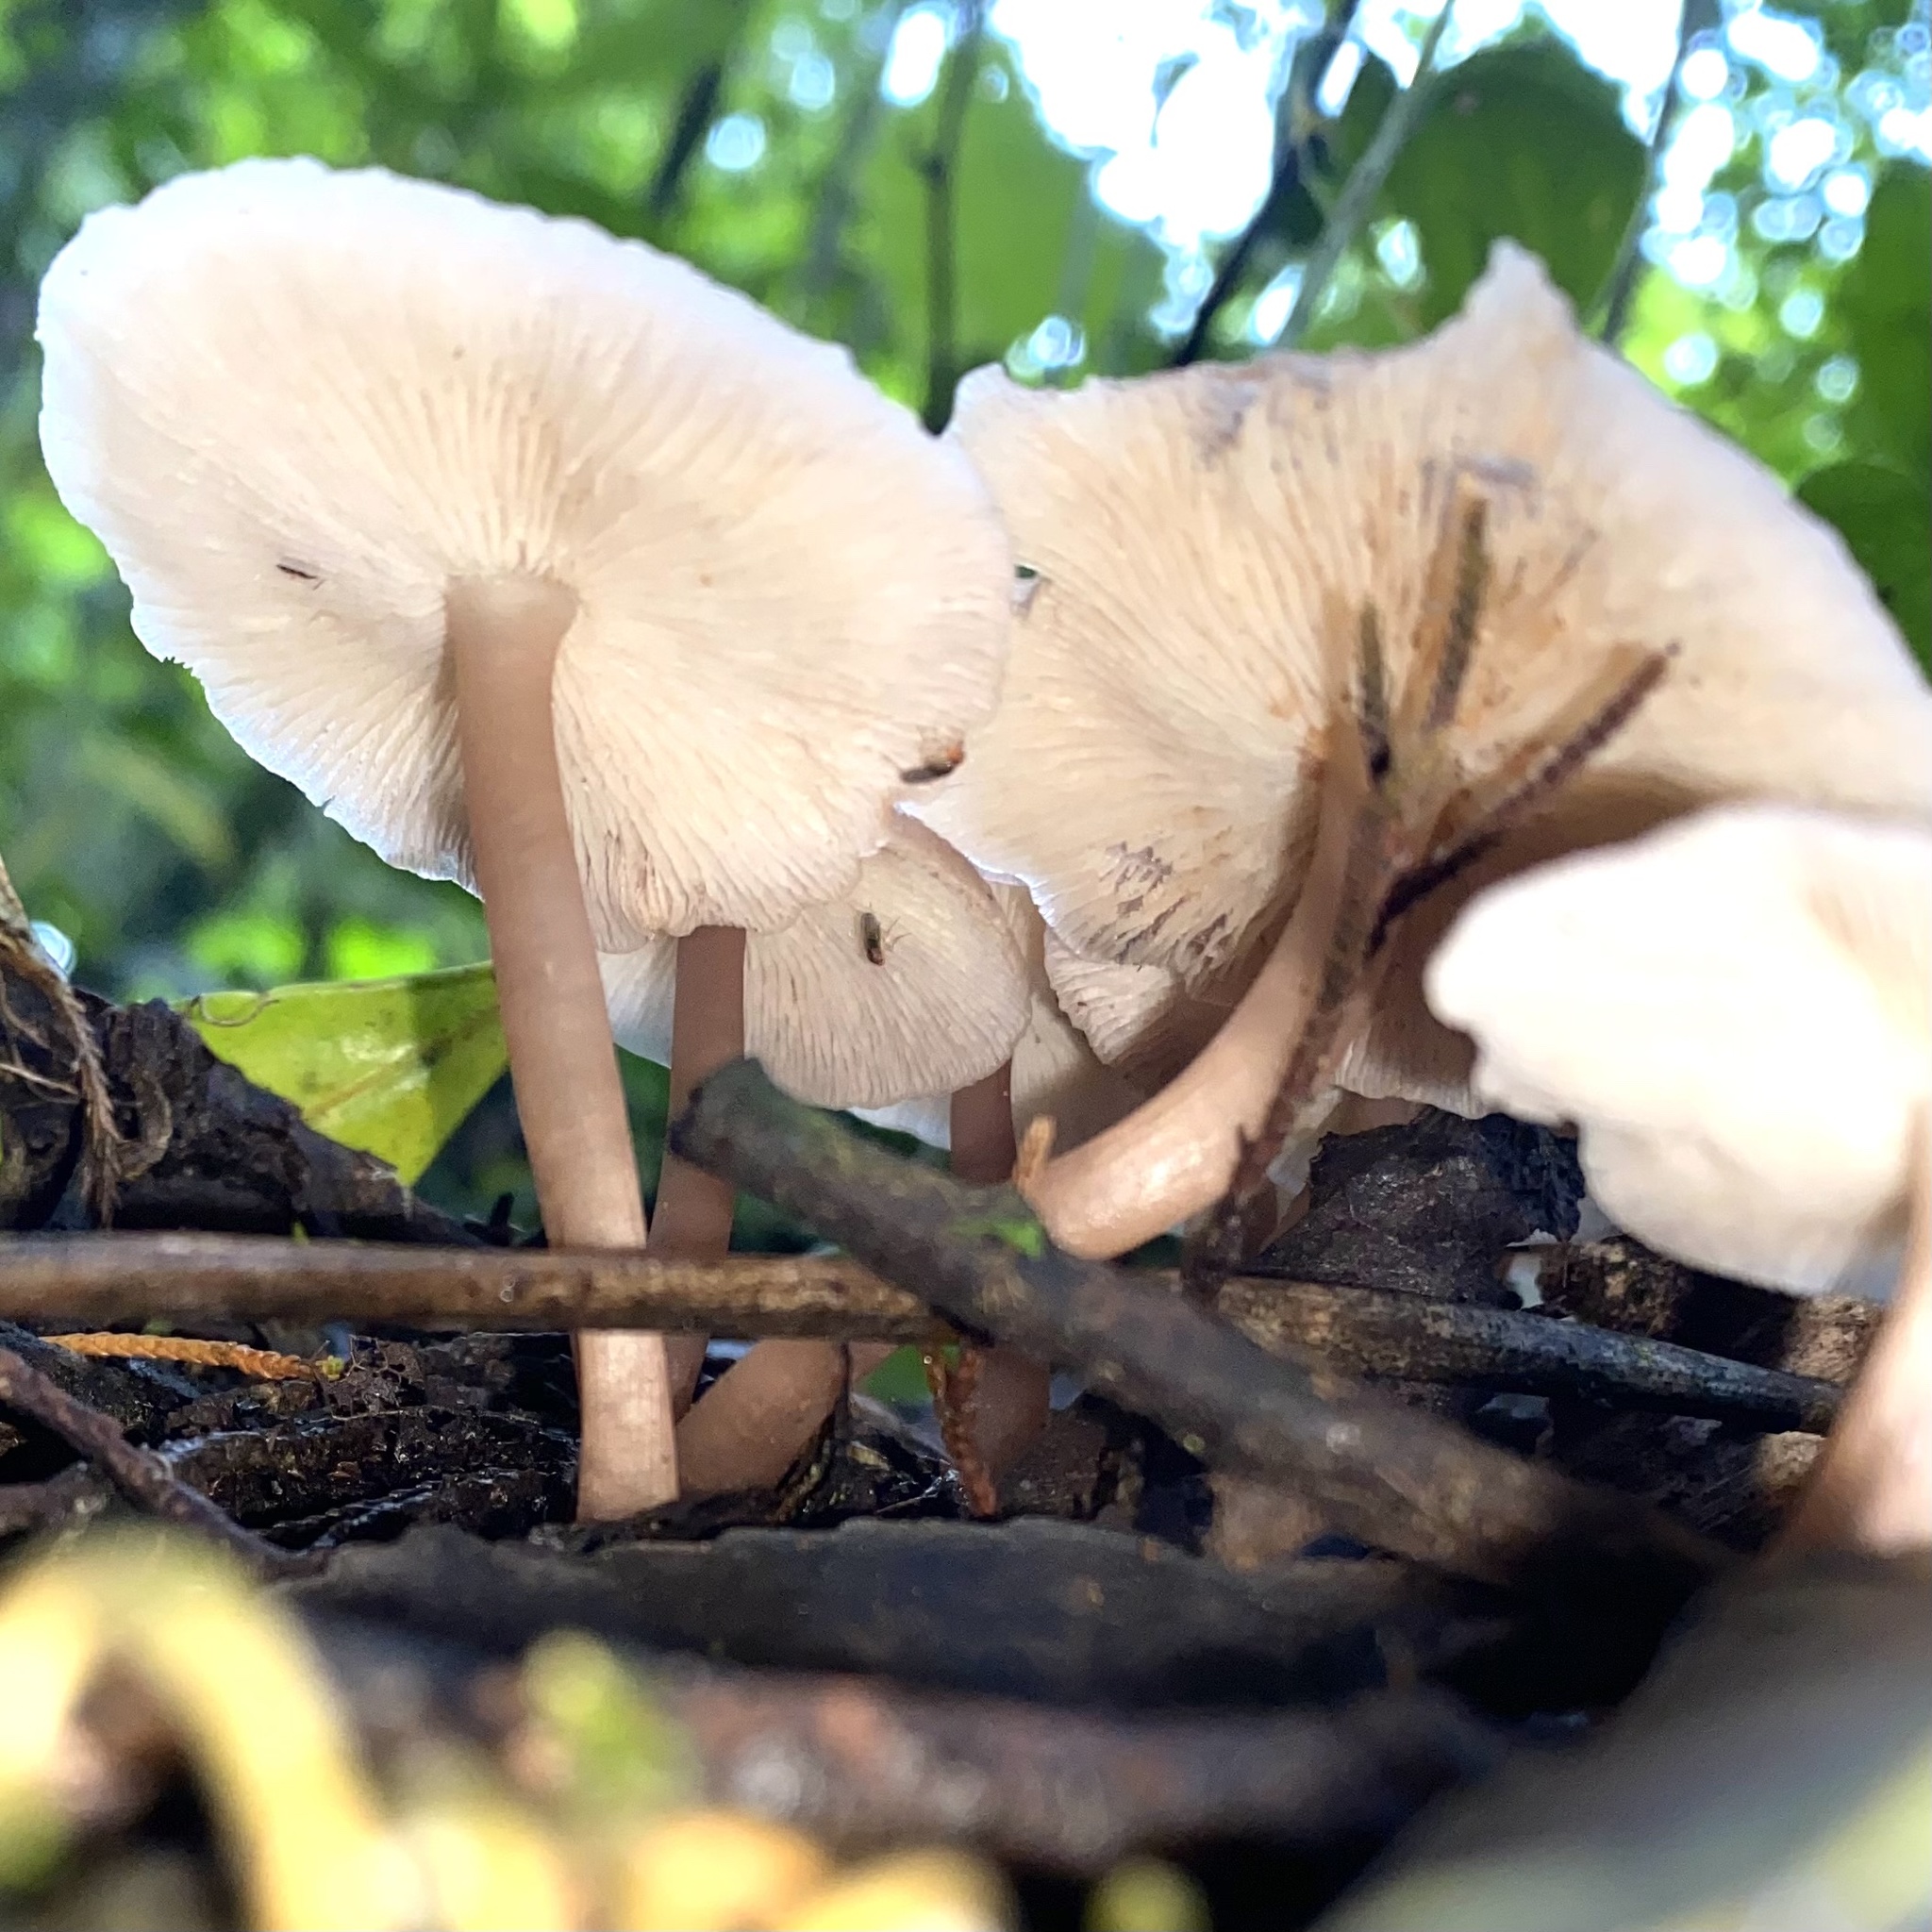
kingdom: Fungi
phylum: Basidiomycota
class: Agaricomycetes
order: Agaricales
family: Omphalotaceae
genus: Gymnopus
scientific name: Gymnopus dryophilus
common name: Penny top
